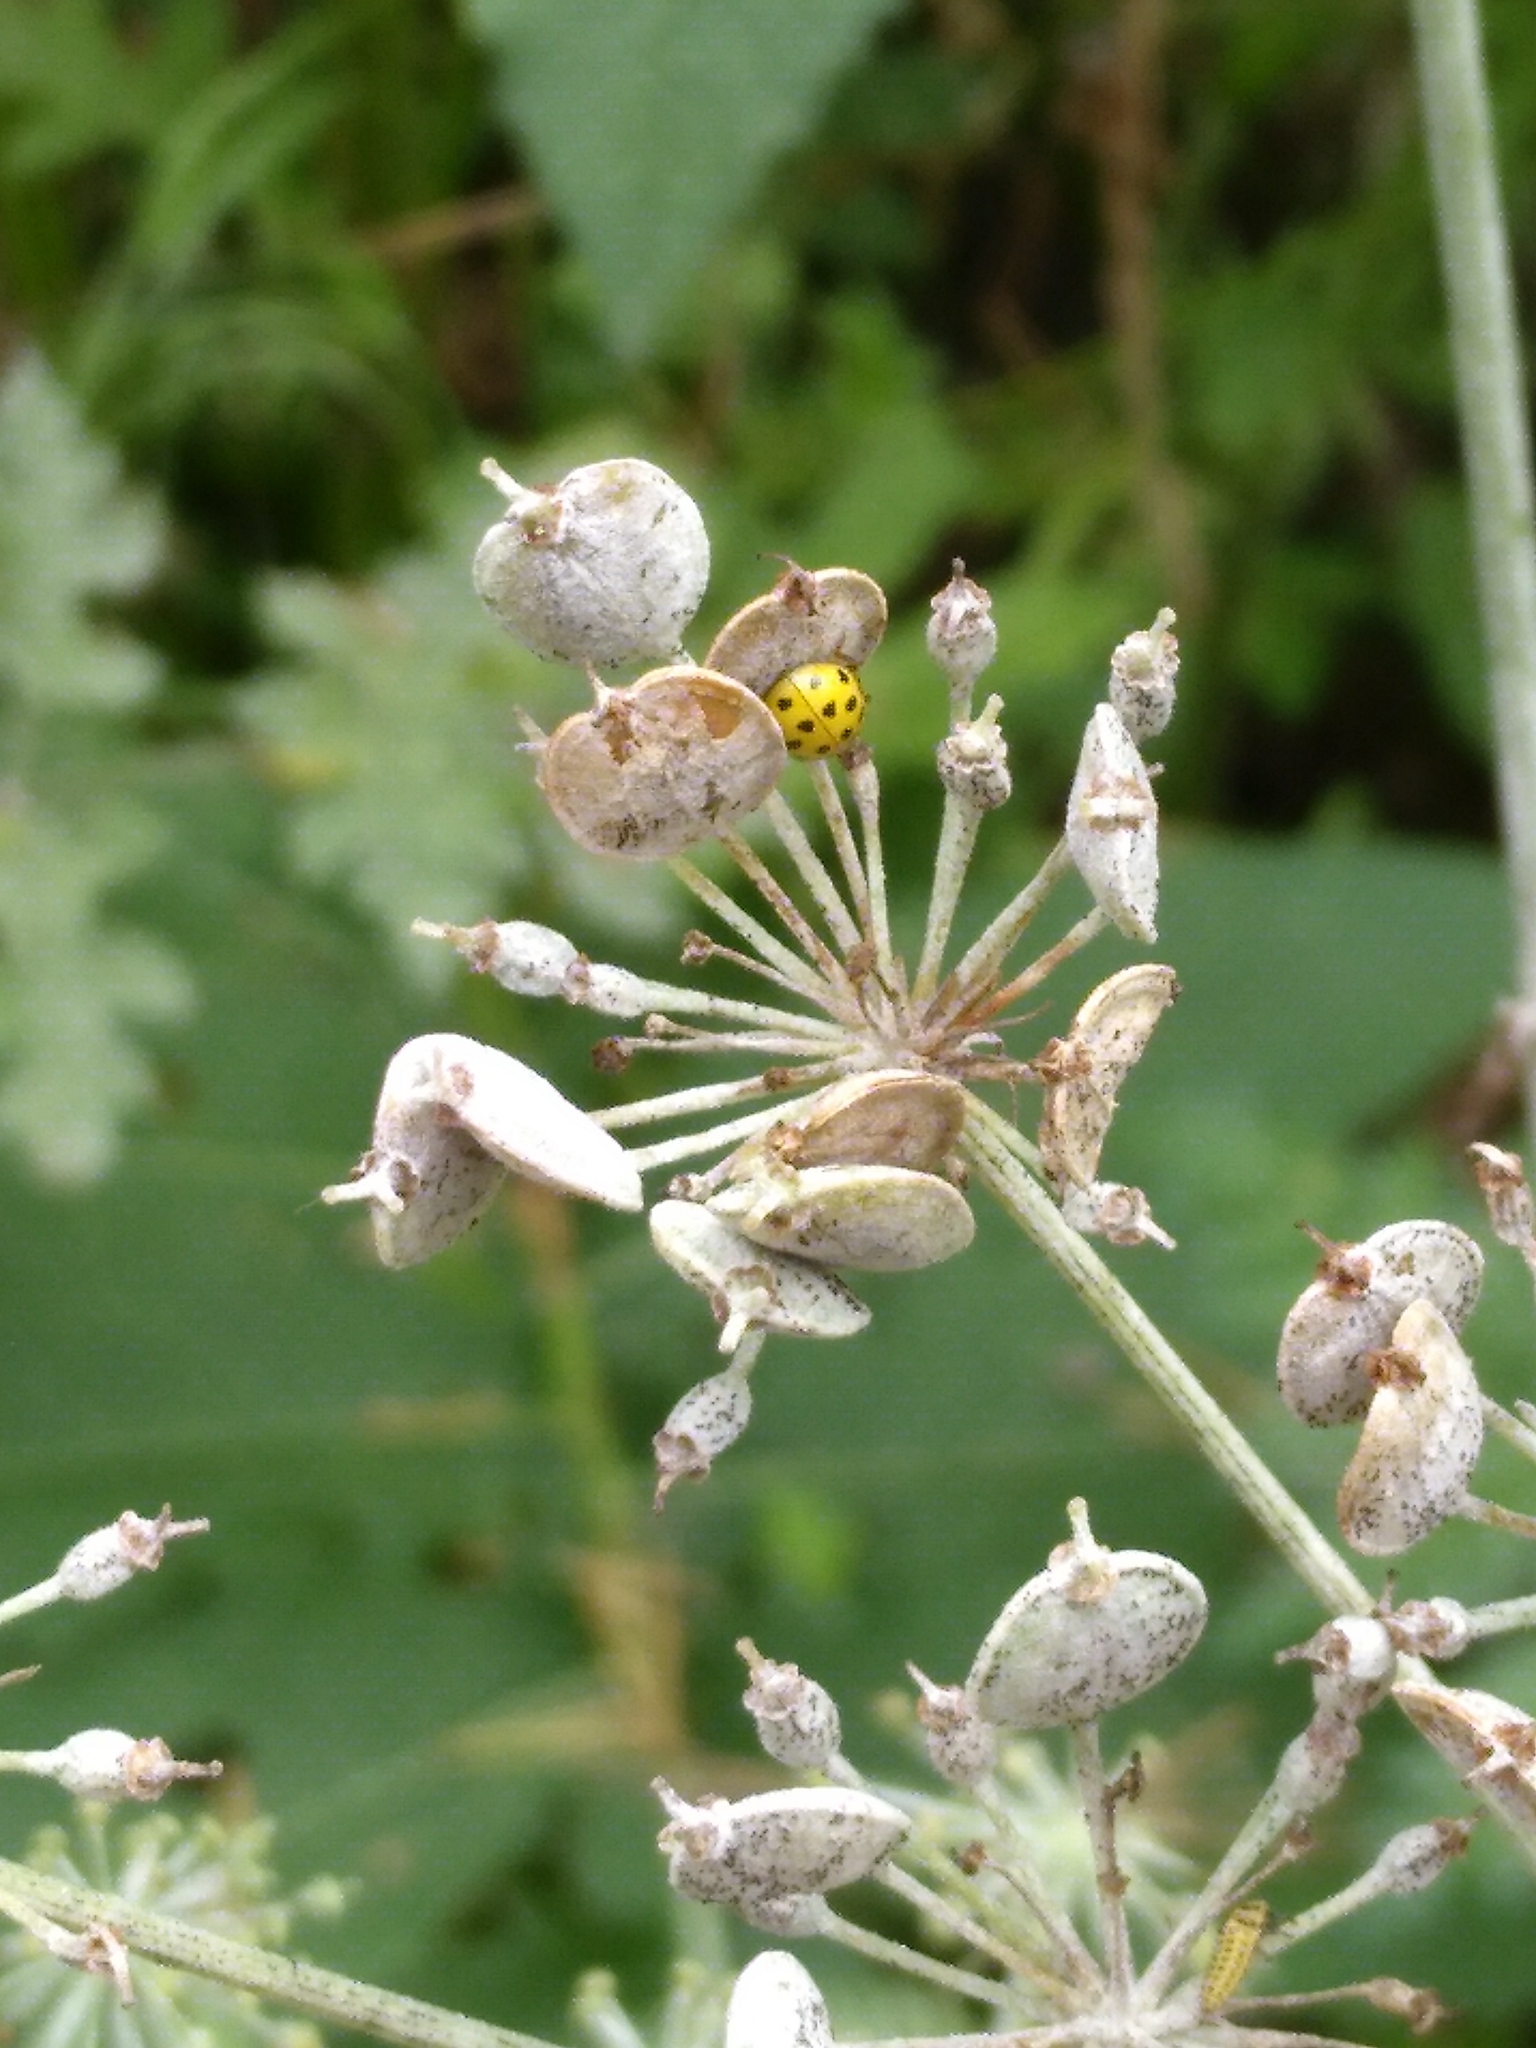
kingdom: Animalia
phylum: Arthropoda
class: Insecta
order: Coleoptera
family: Coccinellidae
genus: Psyllobora
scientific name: Psyllobora vigintiduopunctata
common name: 22-spot ladybird
